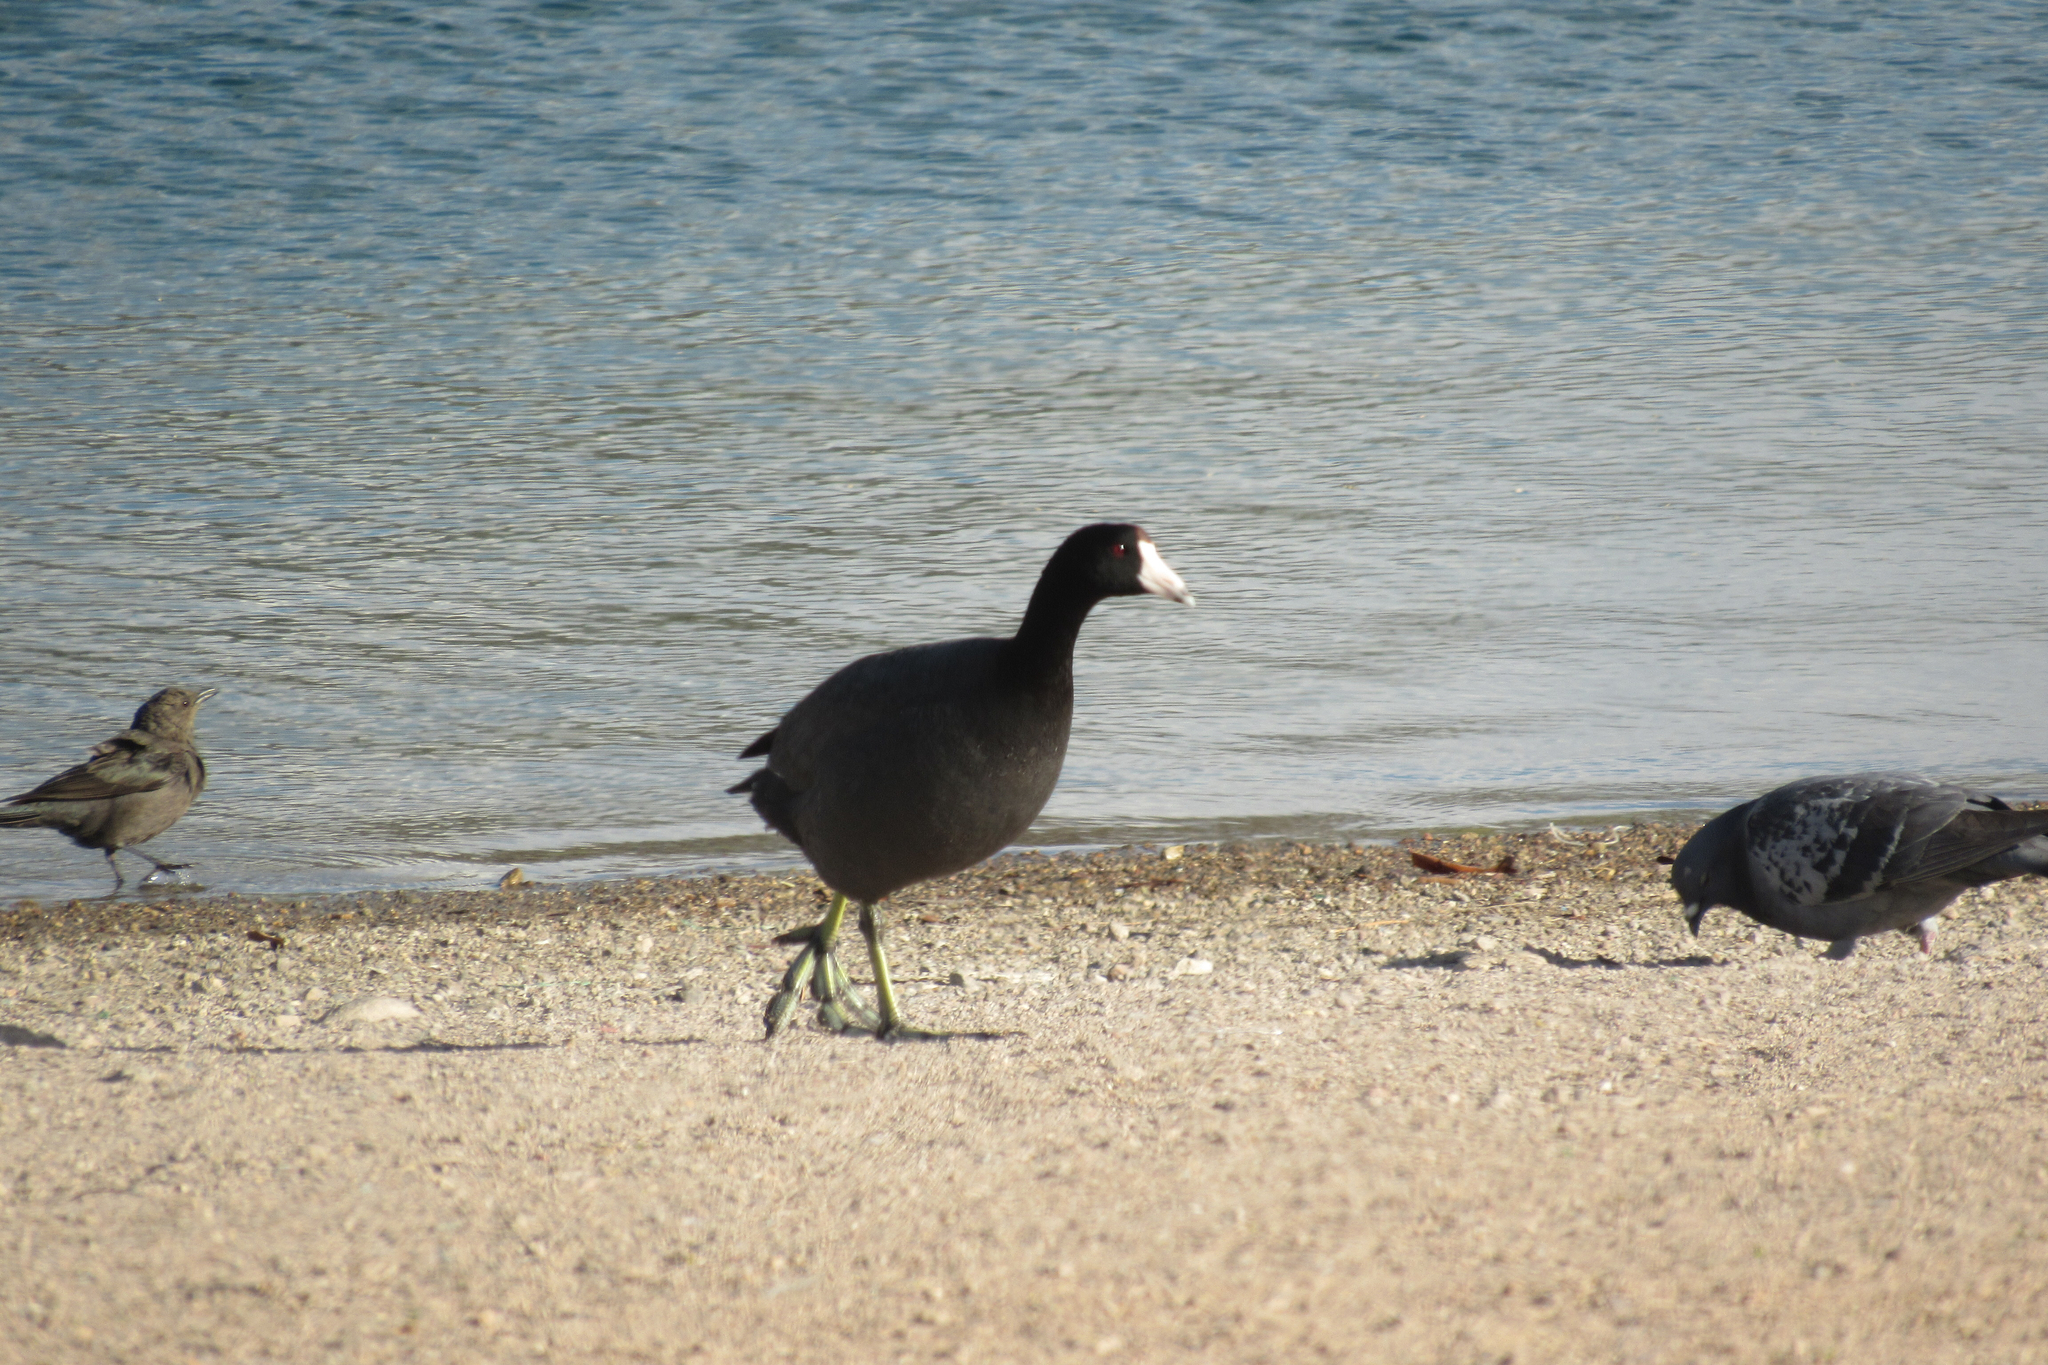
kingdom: Animalia
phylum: Chordata
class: Aves
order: Gruiformes
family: Rallidae
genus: Fulica
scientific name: Fulica americana
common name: American coot
